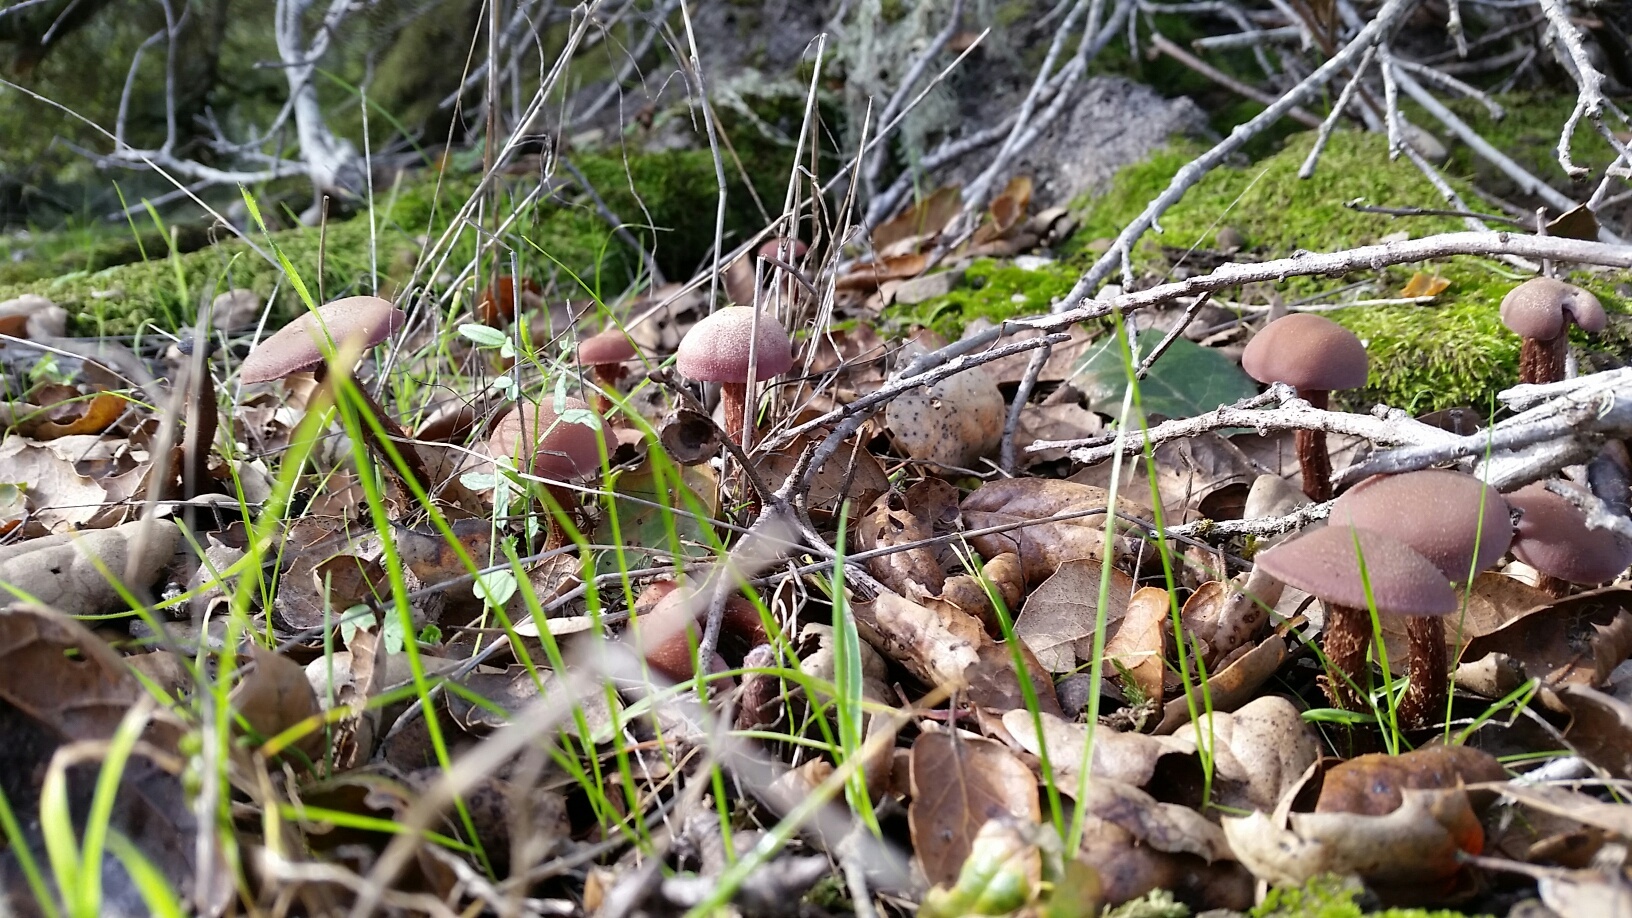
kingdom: Fungi
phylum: Basidiomycota
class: Agaricomycetes
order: Agaricales
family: Hydnangiaceae
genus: Laccaria
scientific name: Laccaria amethysteo-occidentalis
